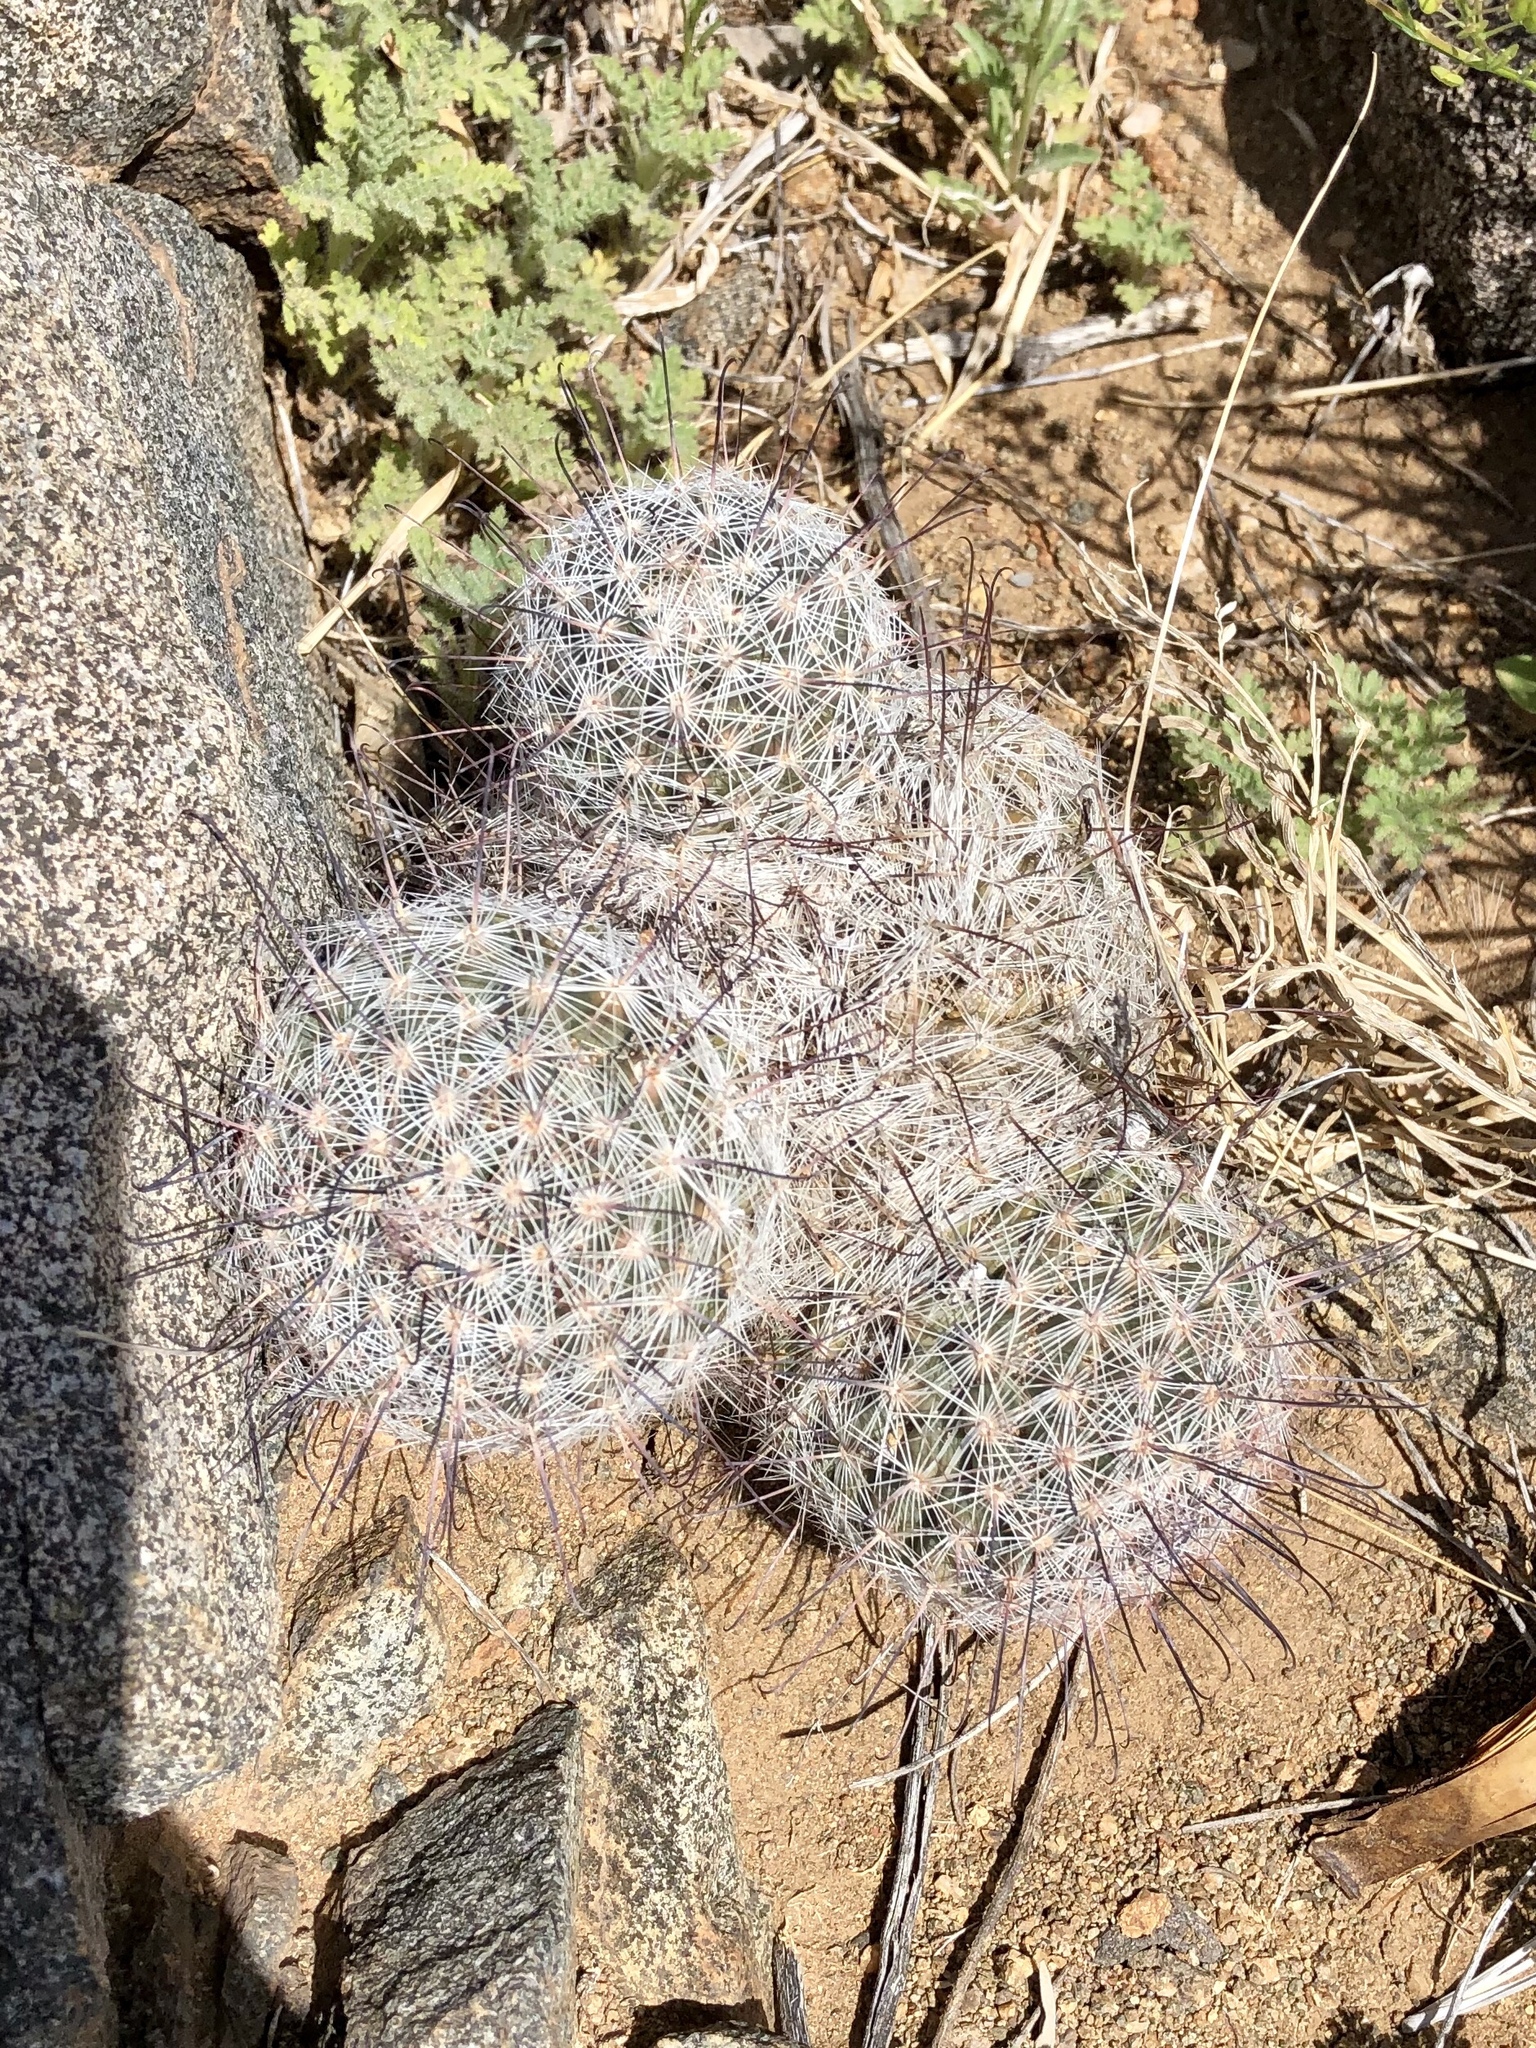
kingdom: Plantae
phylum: Tracheophyta
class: Magnoliopsida
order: Caryophyllales
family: Cactaceae
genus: Cochemiea
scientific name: Cochemiea grahamii
